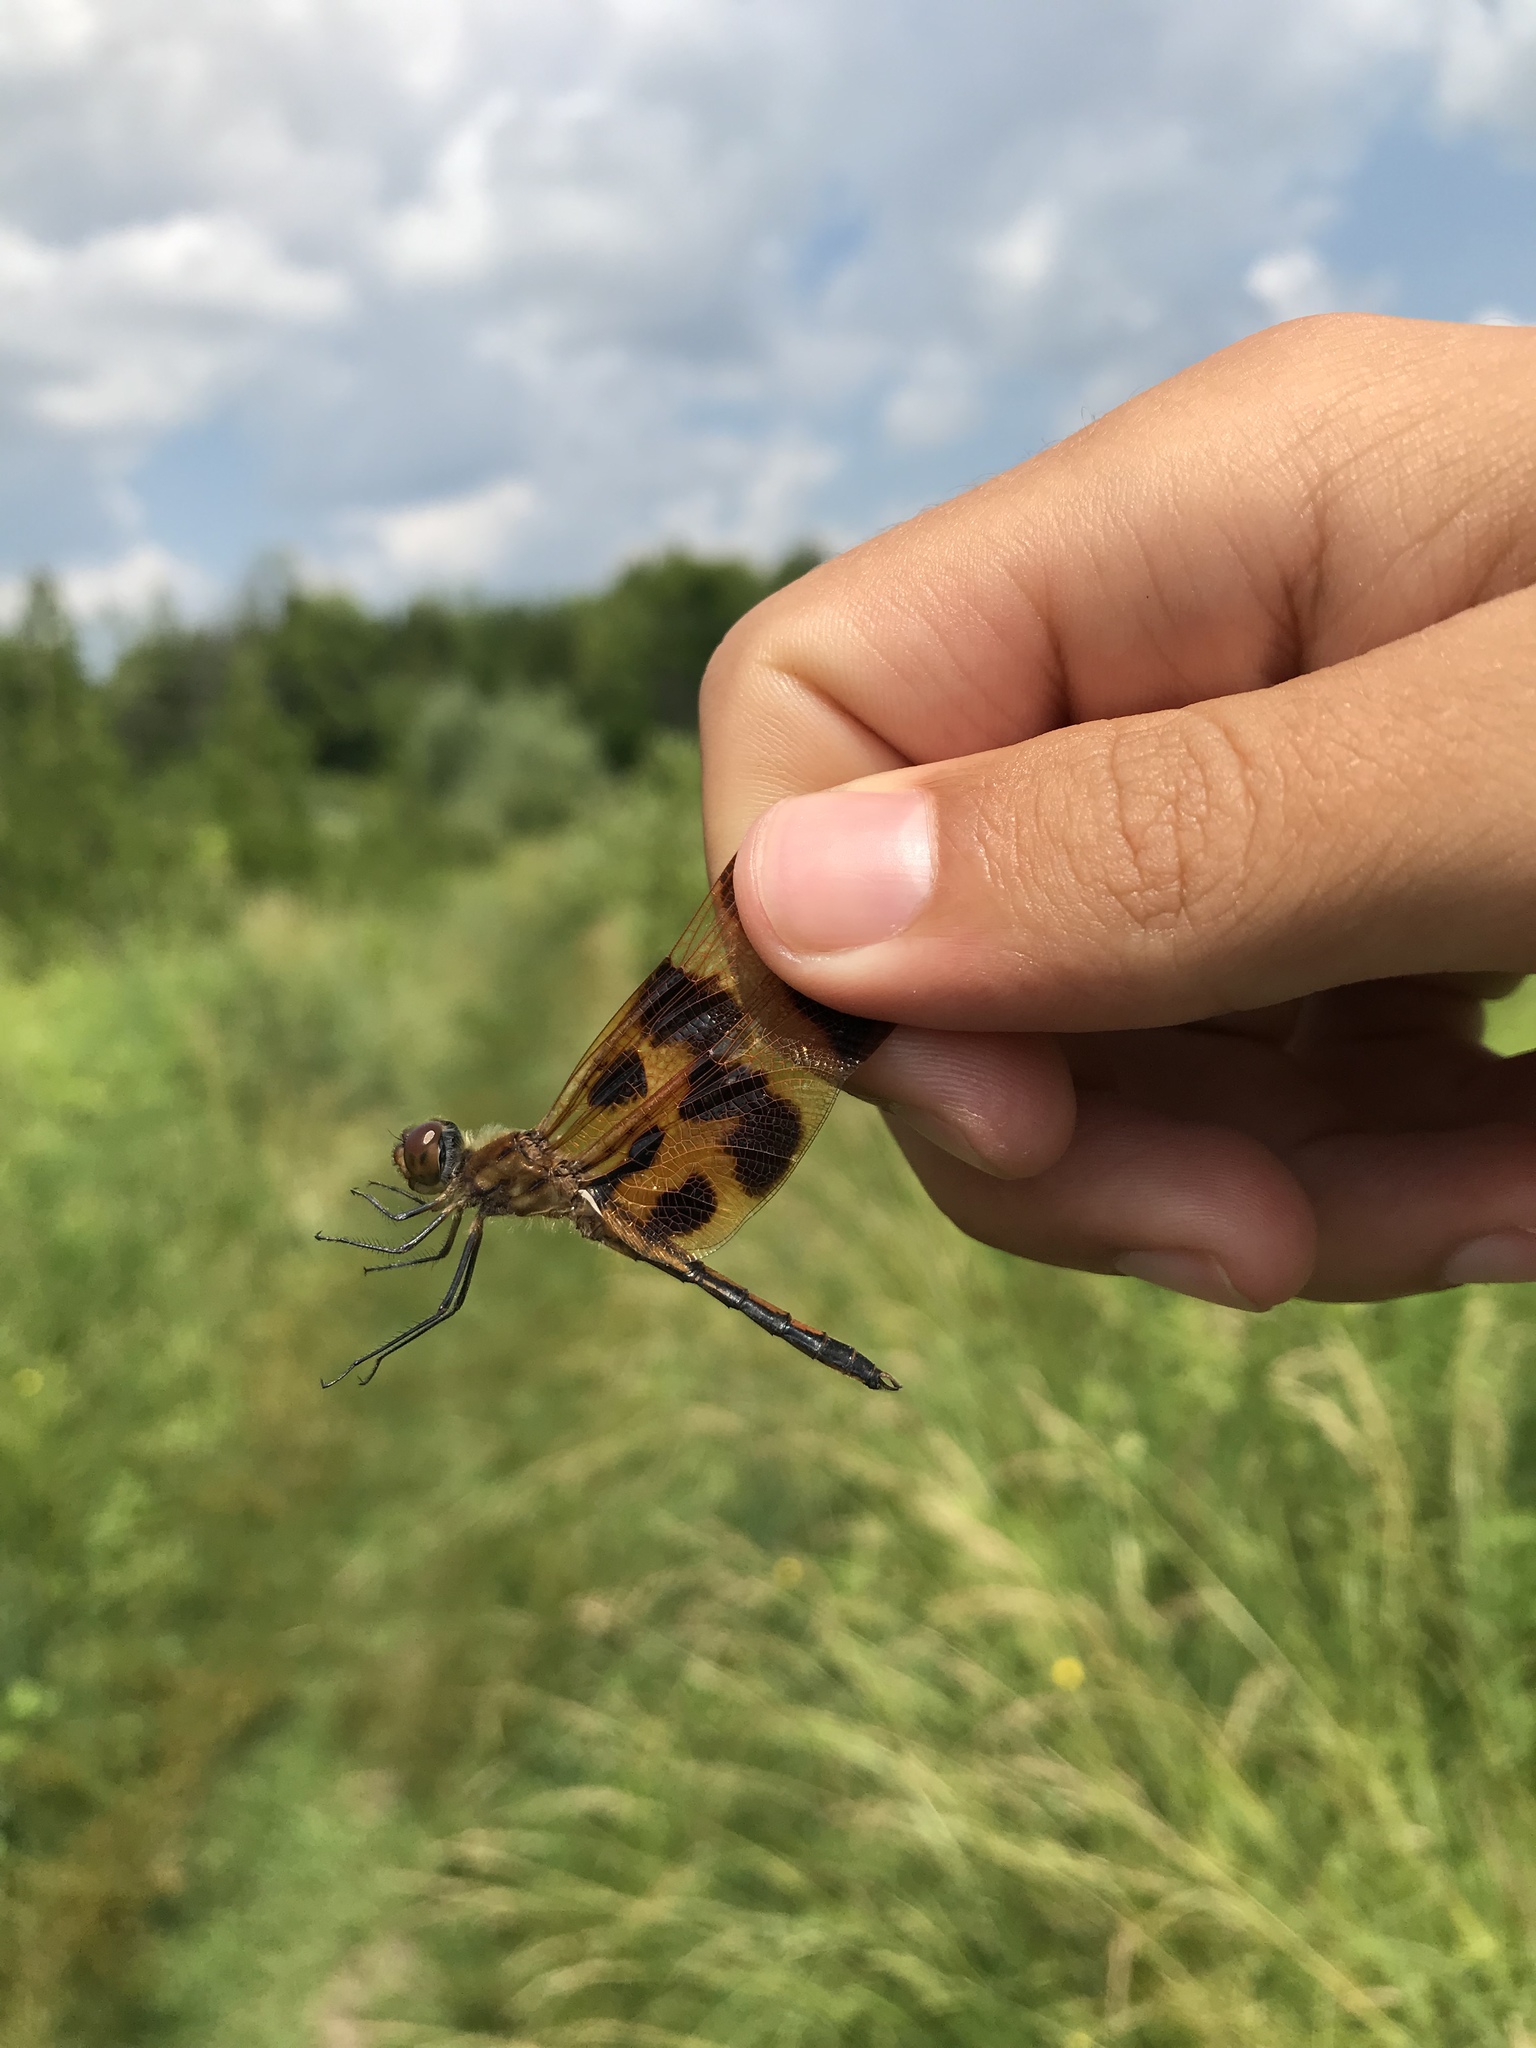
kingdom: Animalia
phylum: Arthropoda
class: Insecta
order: Odonata
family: Libellulidae
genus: Celithemis
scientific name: Celithemis eponina
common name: Halloween pennant
